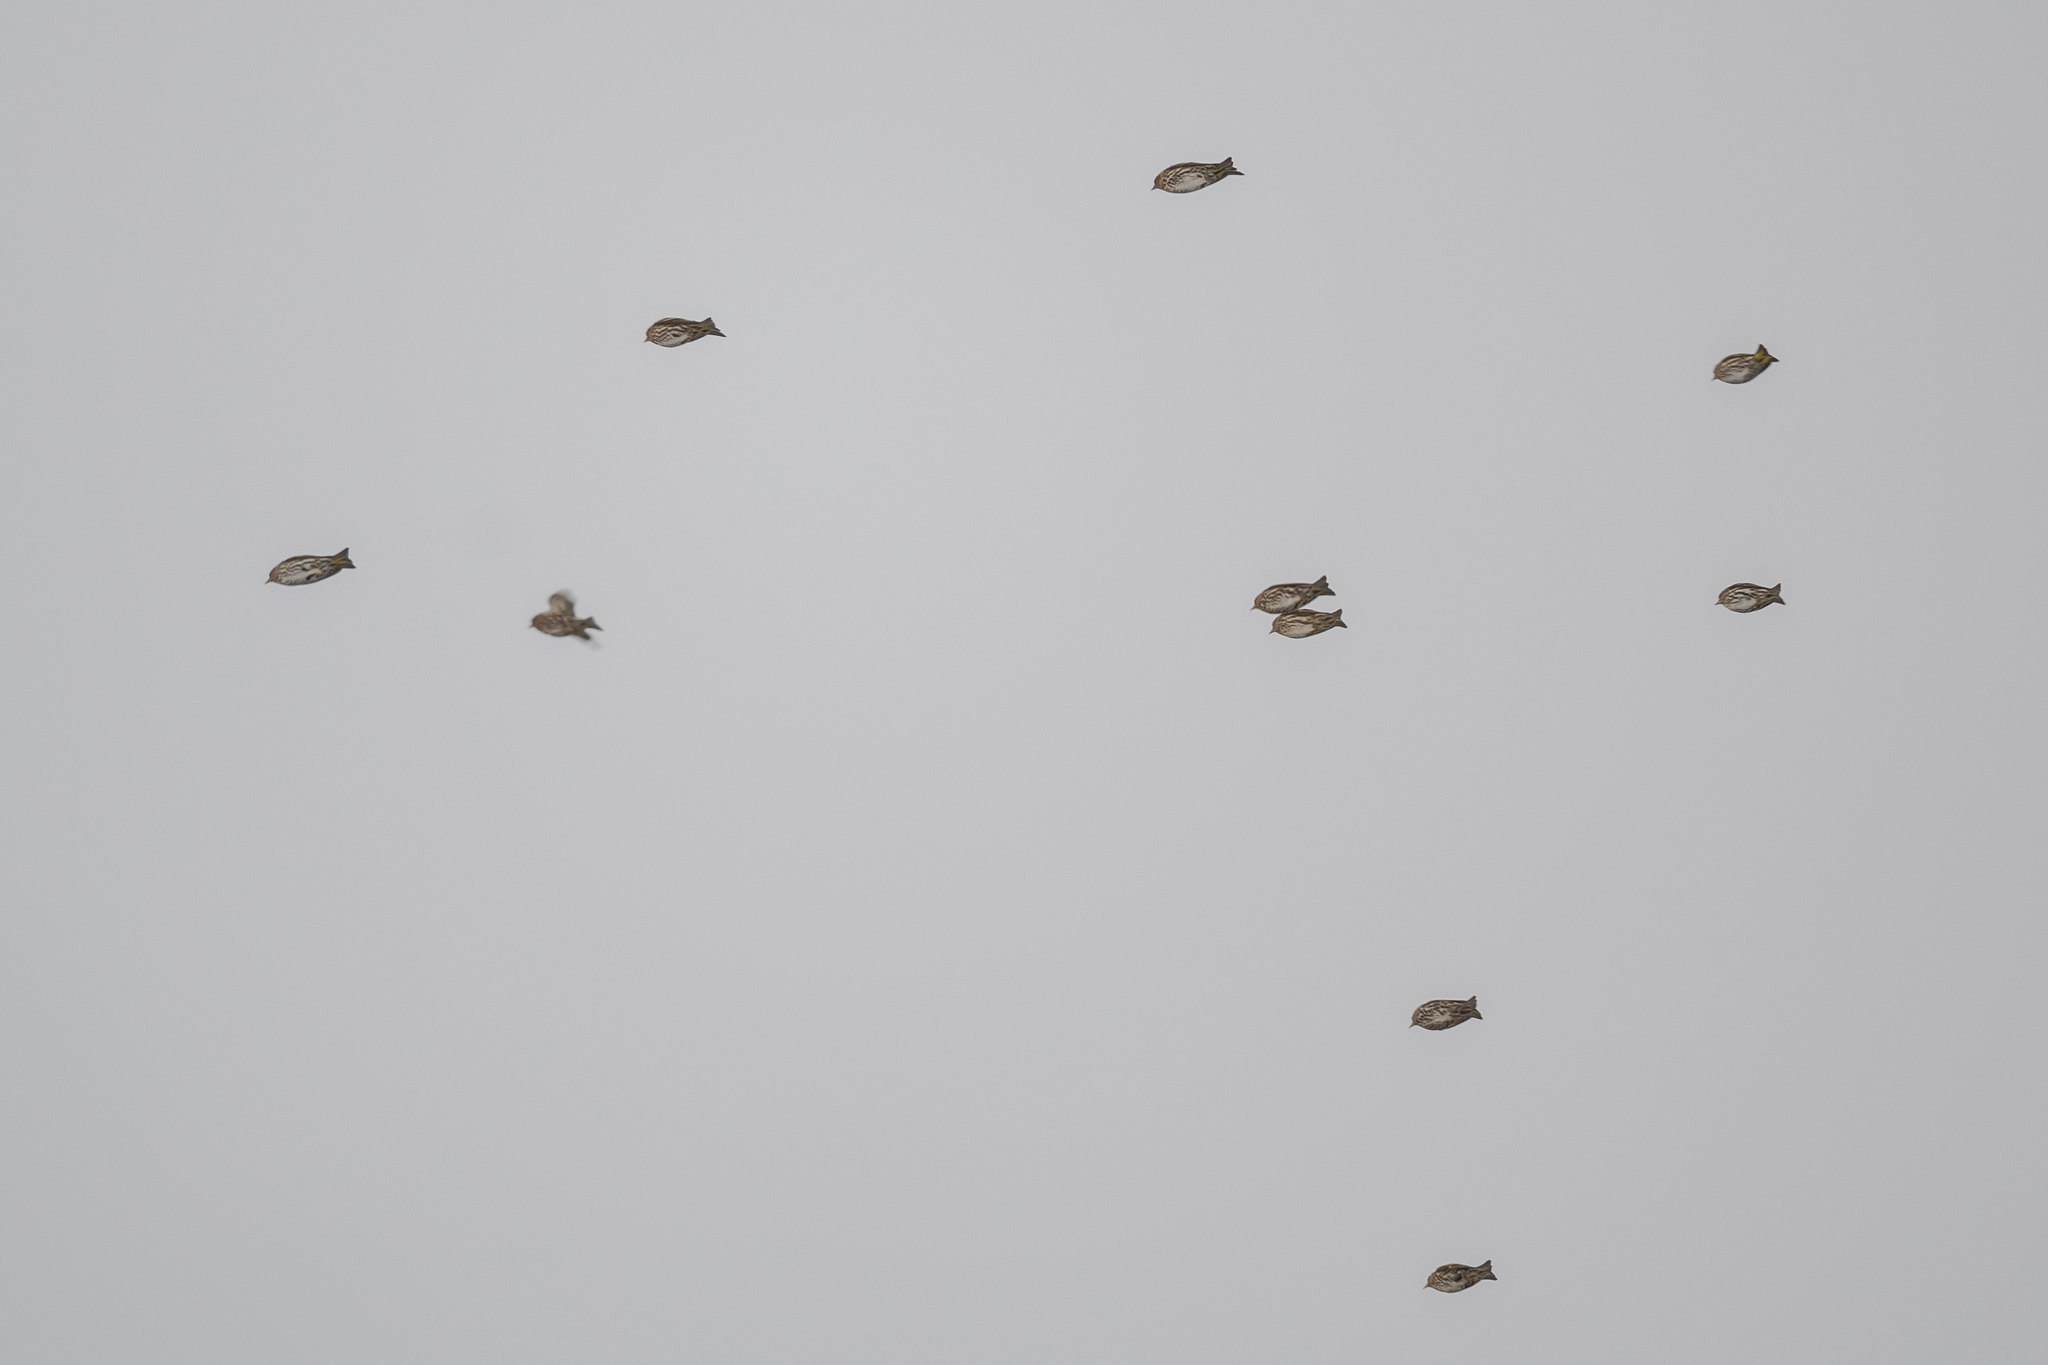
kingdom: Animalia
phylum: Chordata
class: Aves
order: Passeriformes
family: Fringillidae
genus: Spinus
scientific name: Spinus pinus
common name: Pine siskin
